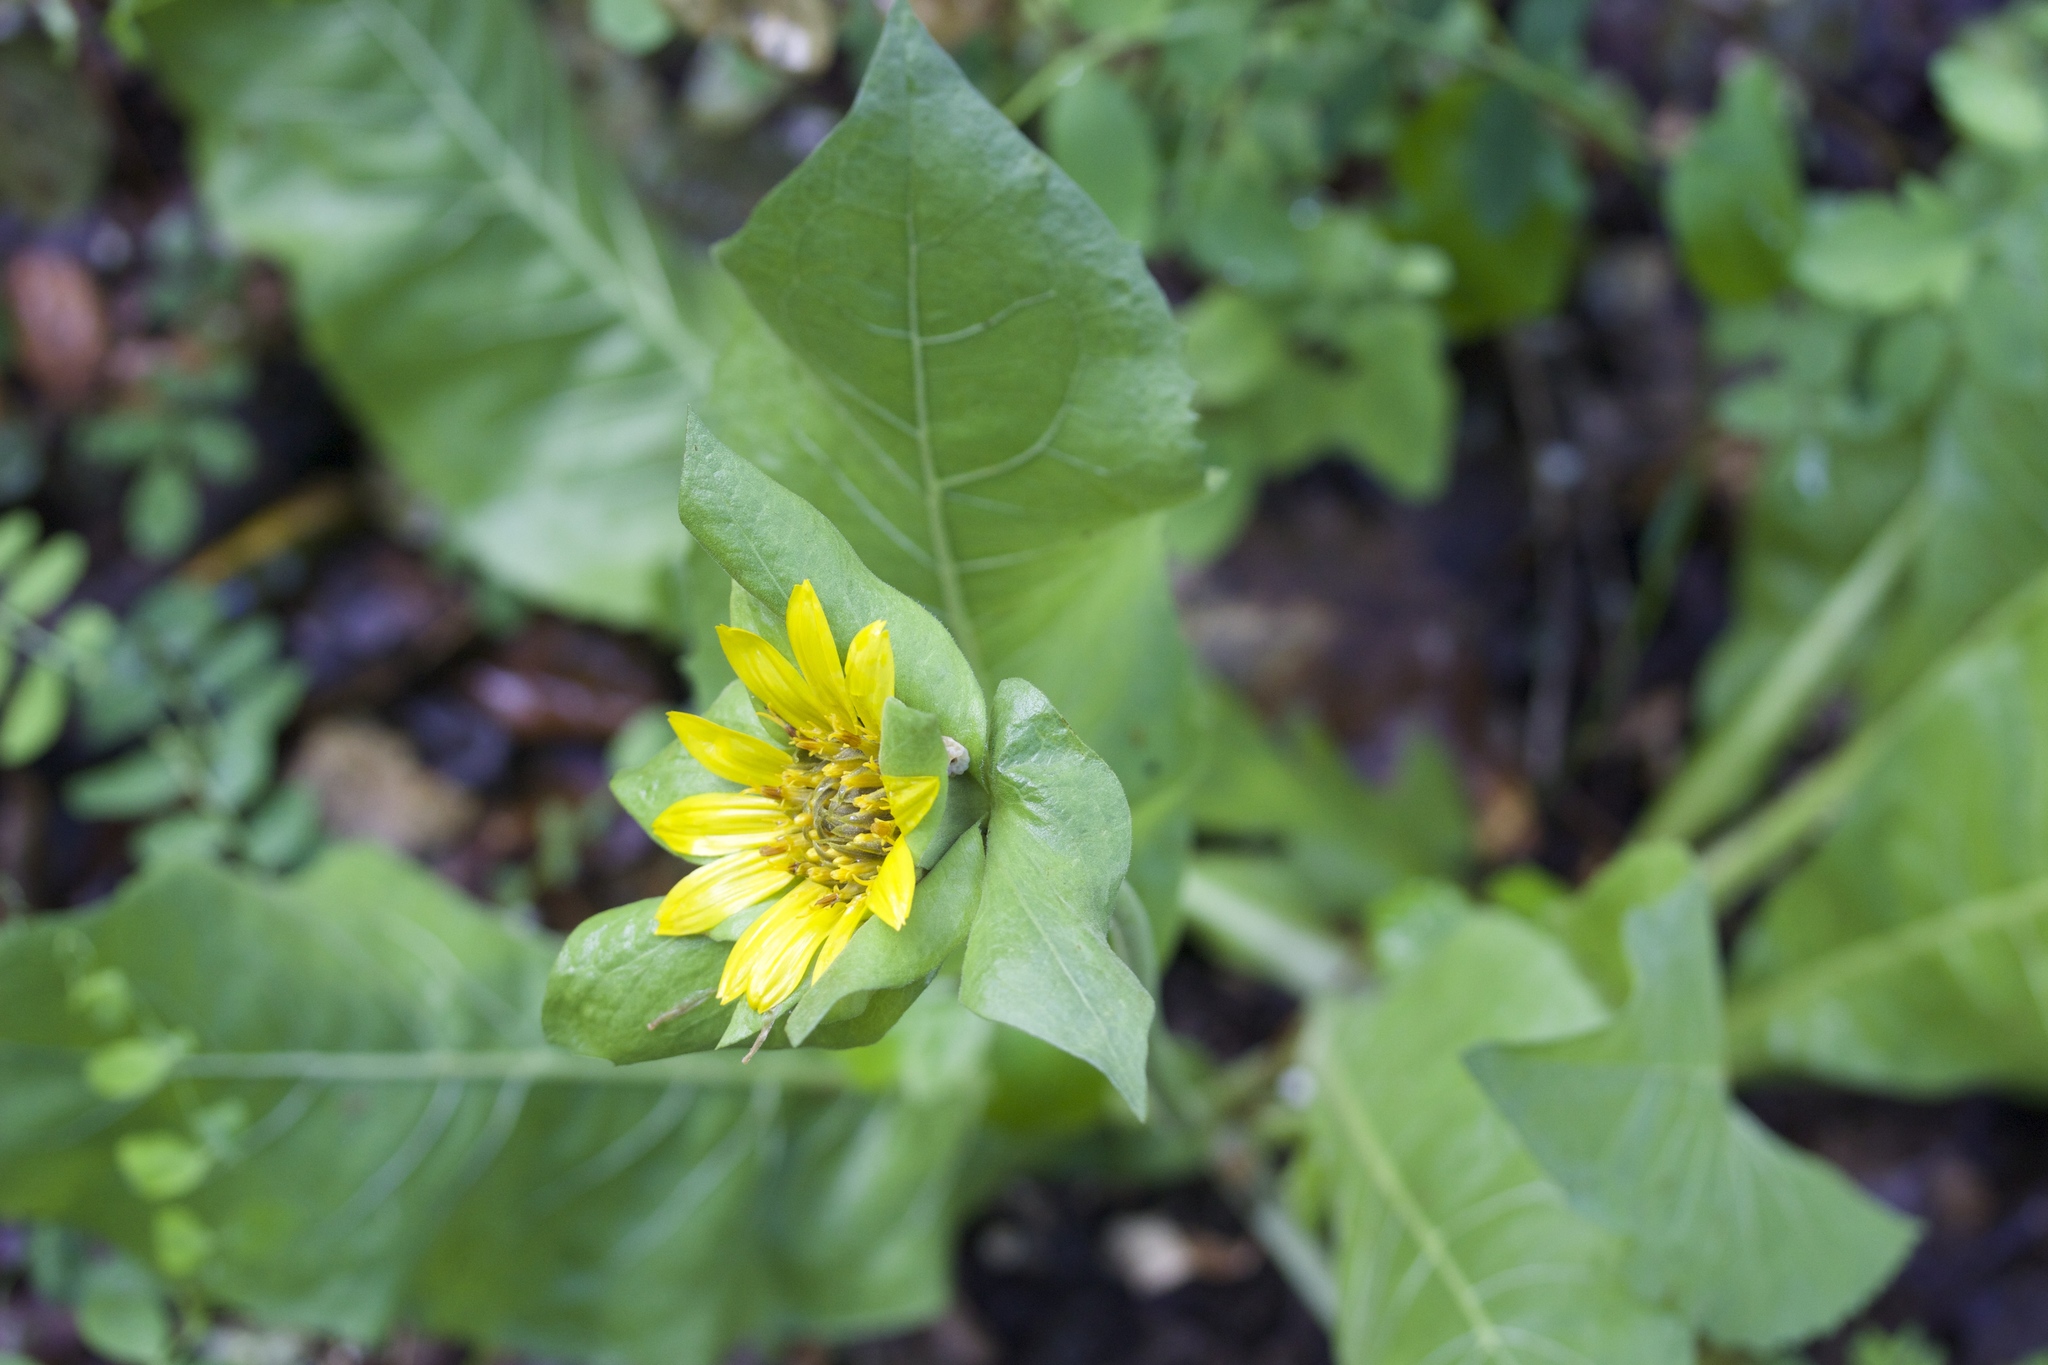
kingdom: Plantae
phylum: Tracheophyta
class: Magnoliopsida
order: Asterales
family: Asteraceae
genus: Wyethia
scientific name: Wyethia glabra
